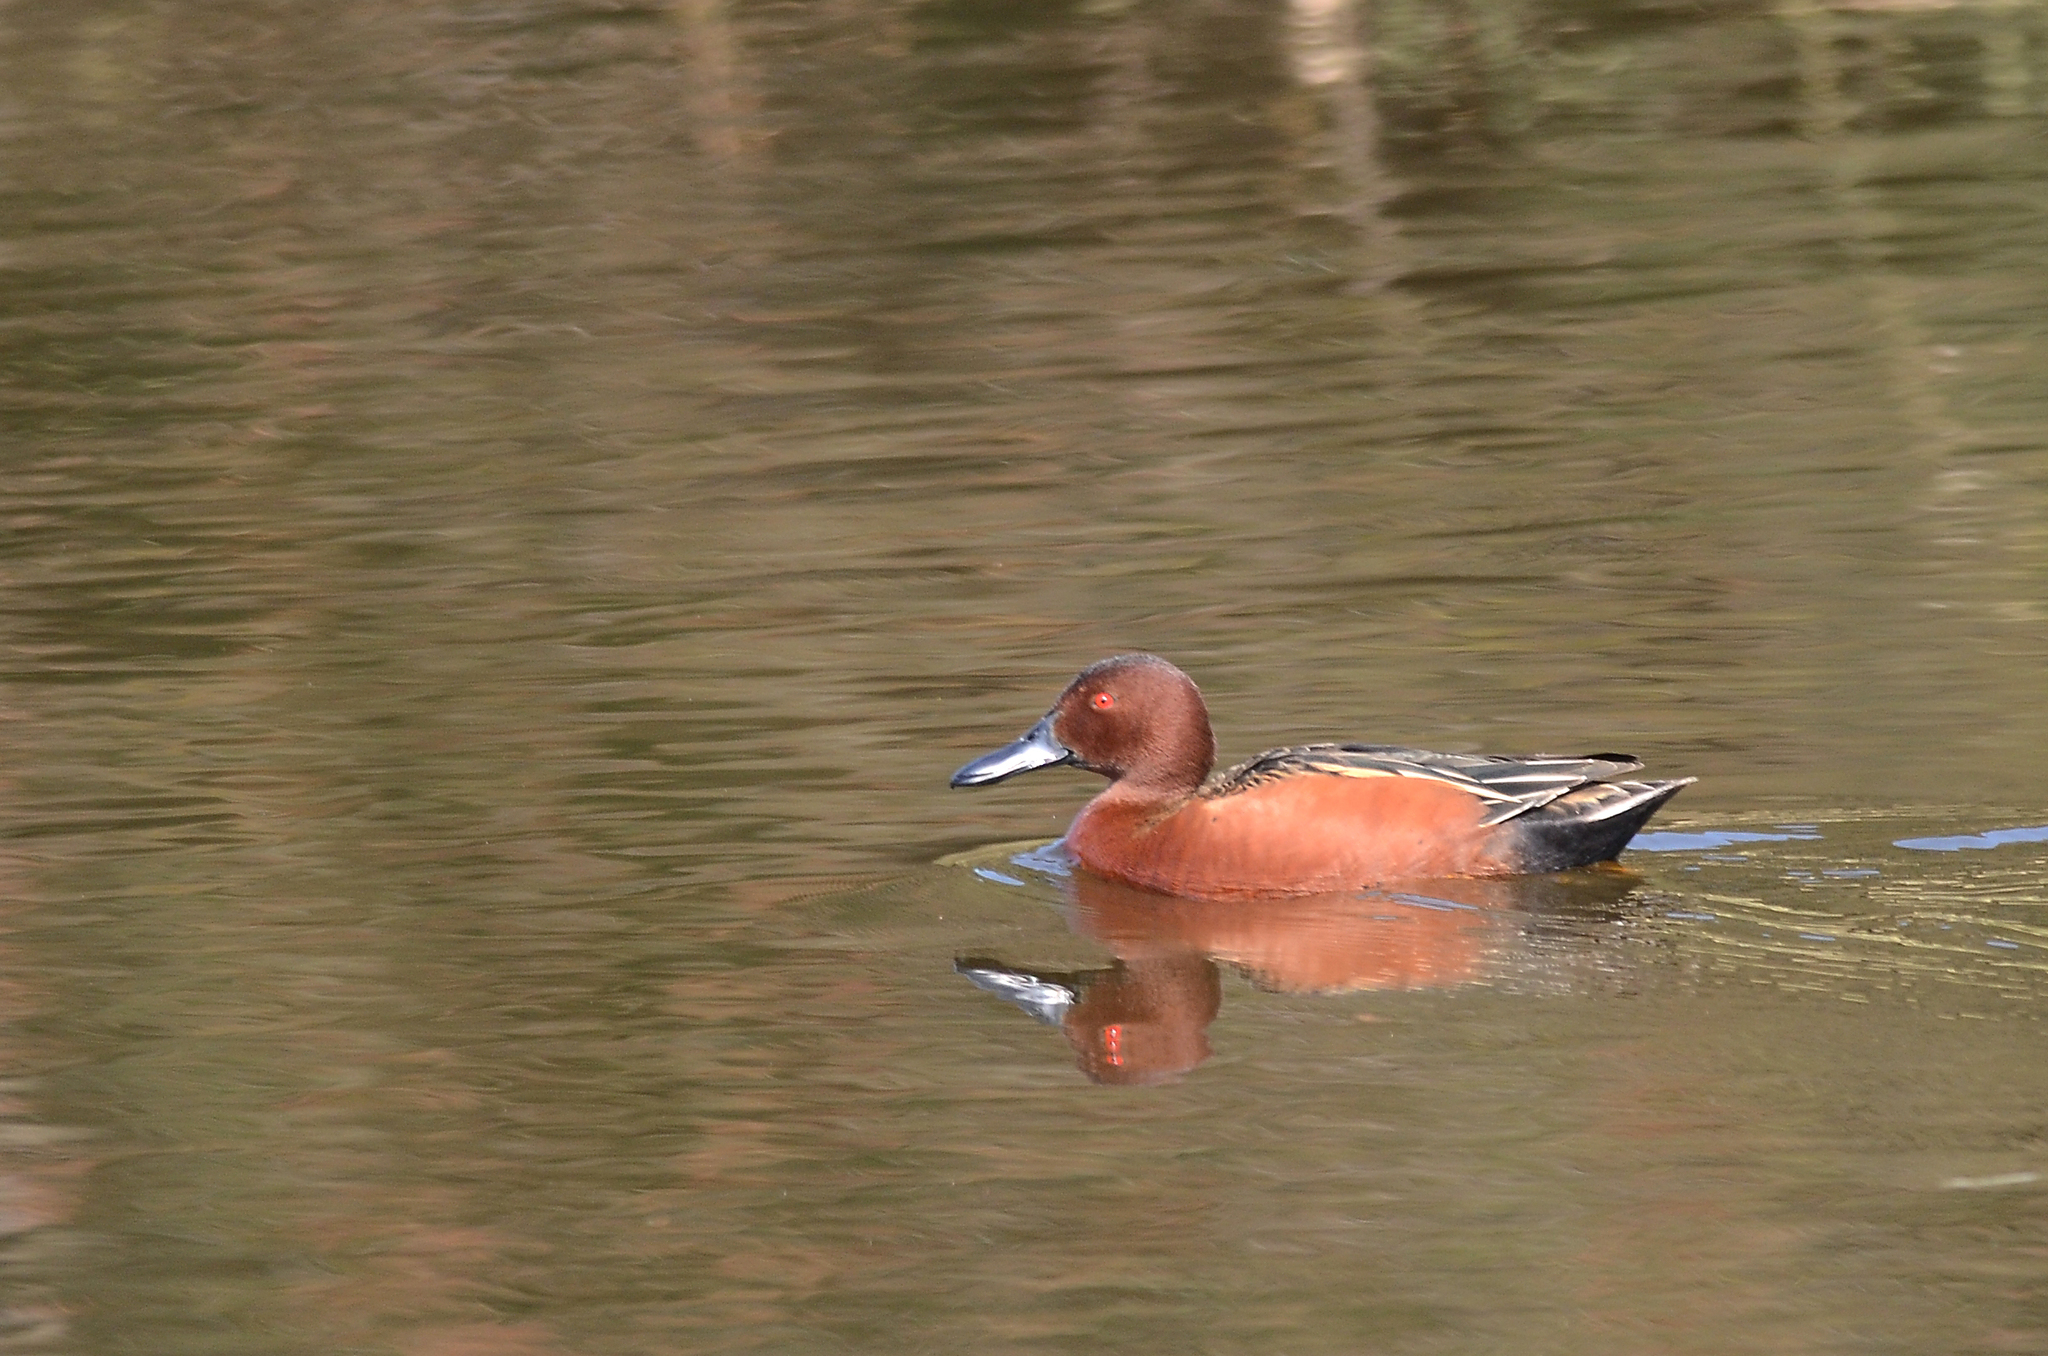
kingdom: Animalia
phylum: Chordata
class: Aves
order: Anseriformes
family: Anatidae
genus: Spatula
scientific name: Spatula cyanoptera
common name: Cinnamon teal
